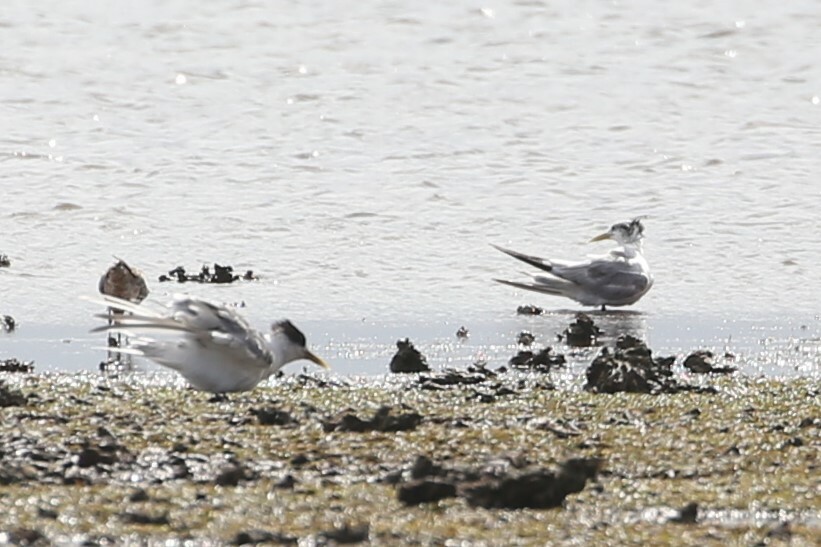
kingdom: Animalia
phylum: Chordata
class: Aves
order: Charadriiformes
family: Laridae
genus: Thalasseus
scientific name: Thalasseus bergii
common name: Greater crested tern
